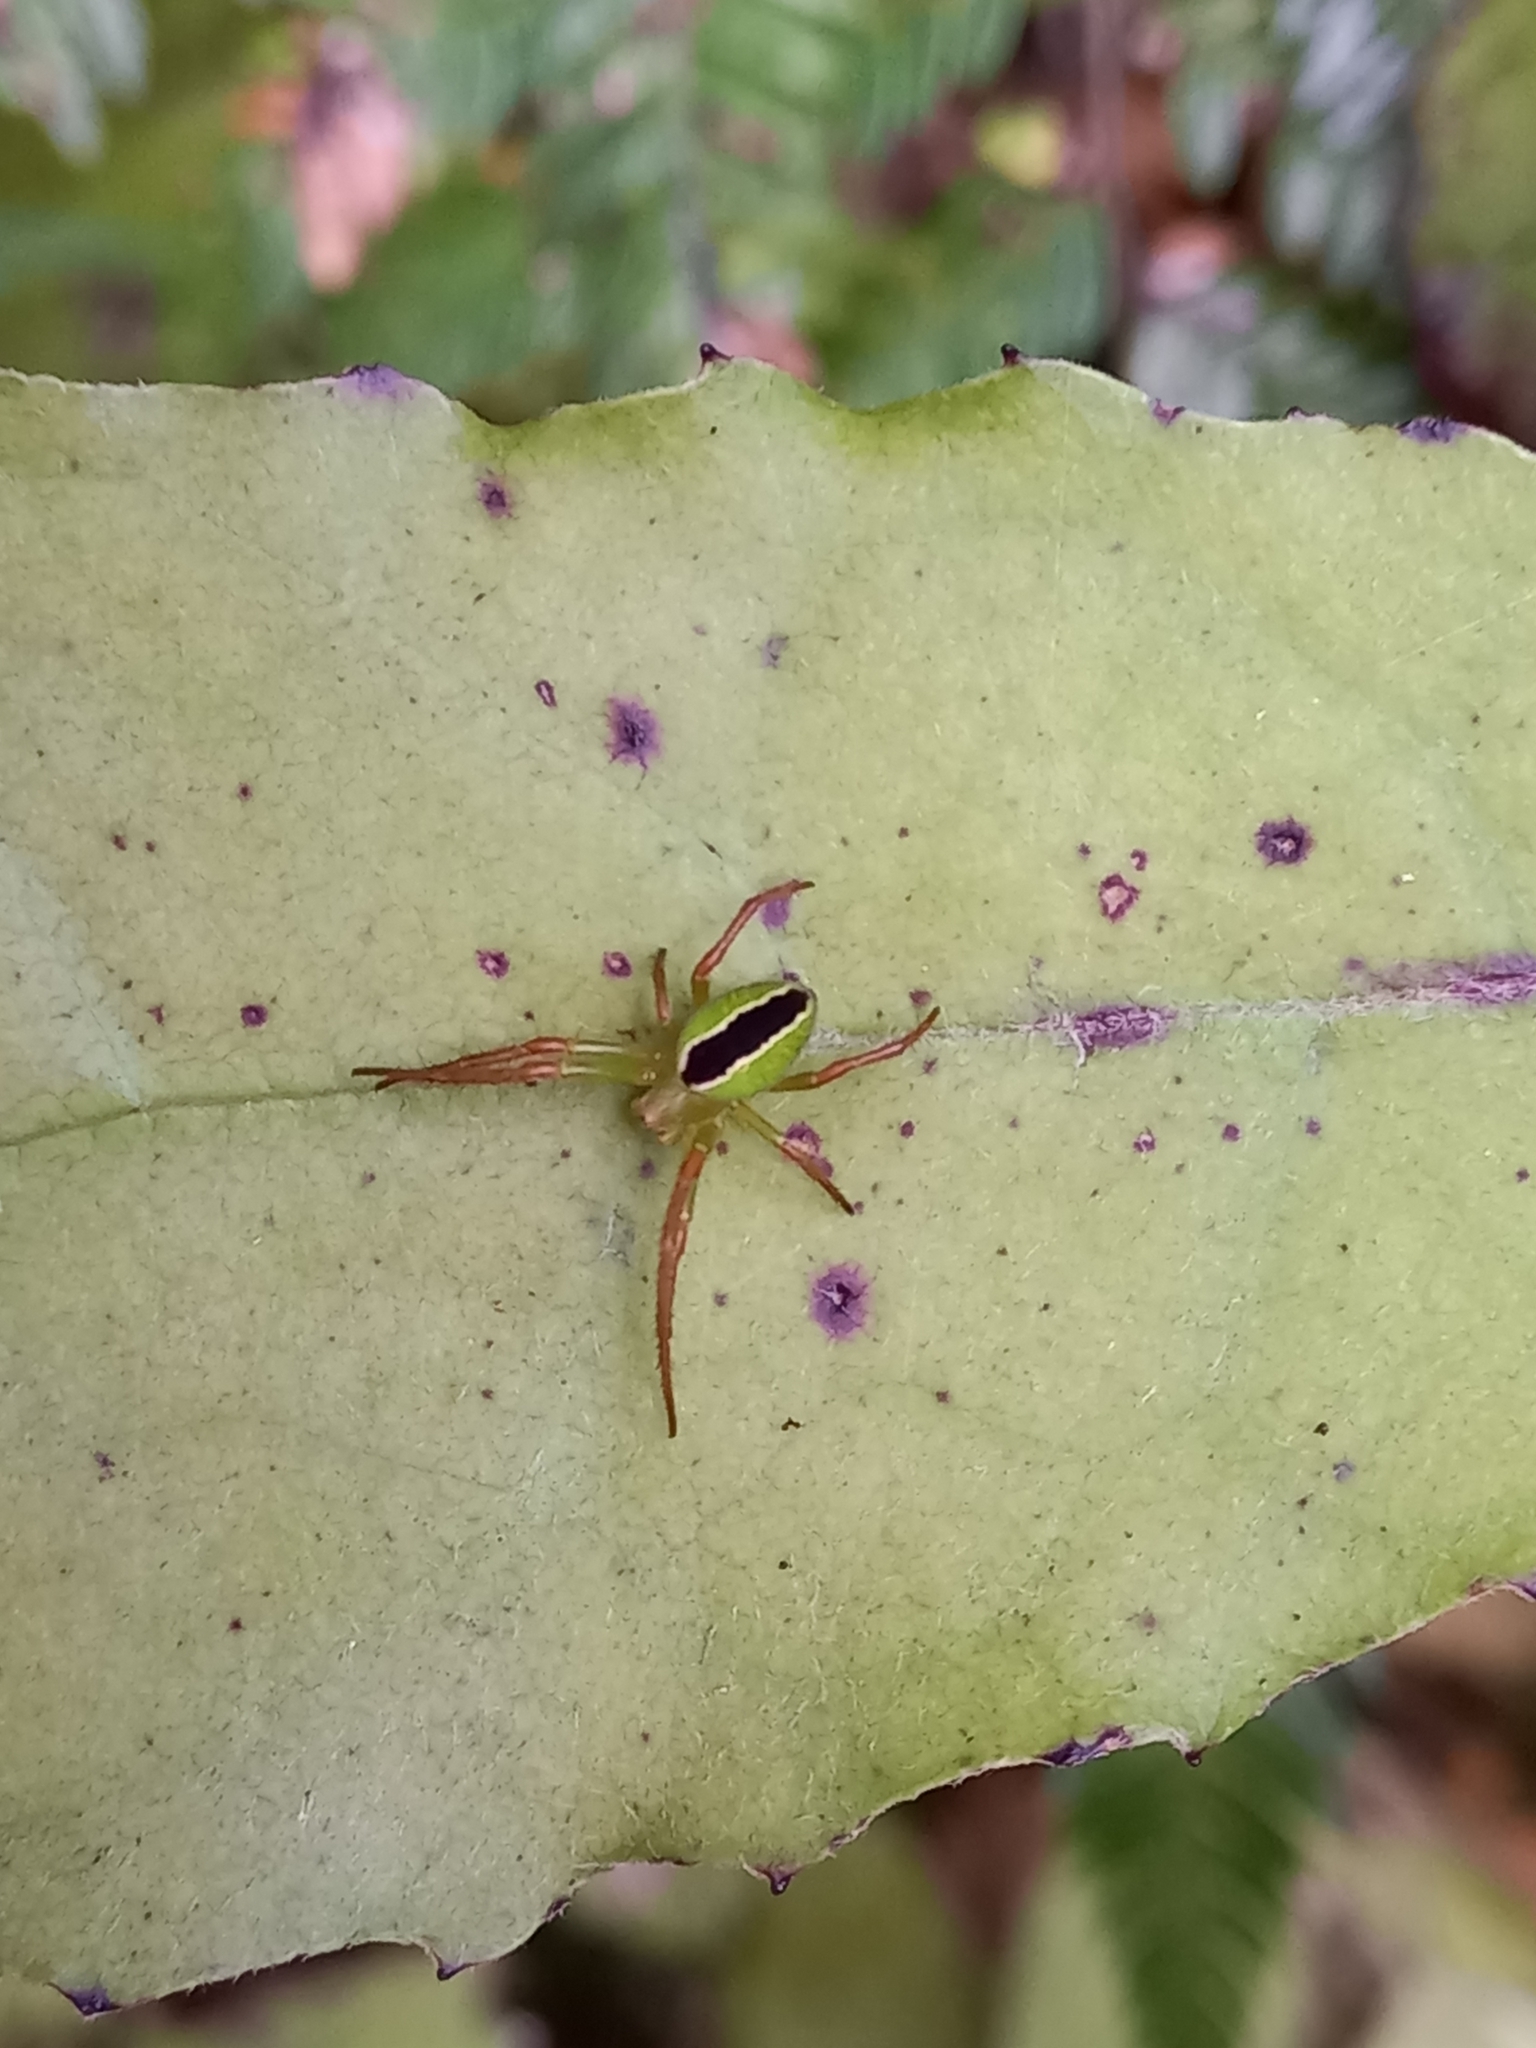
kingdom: Animalia
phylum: Arthropoda
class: Arachnida
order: Araneae
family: Araneidae
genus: Colaranea
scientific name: Colaranea melanoviridis
